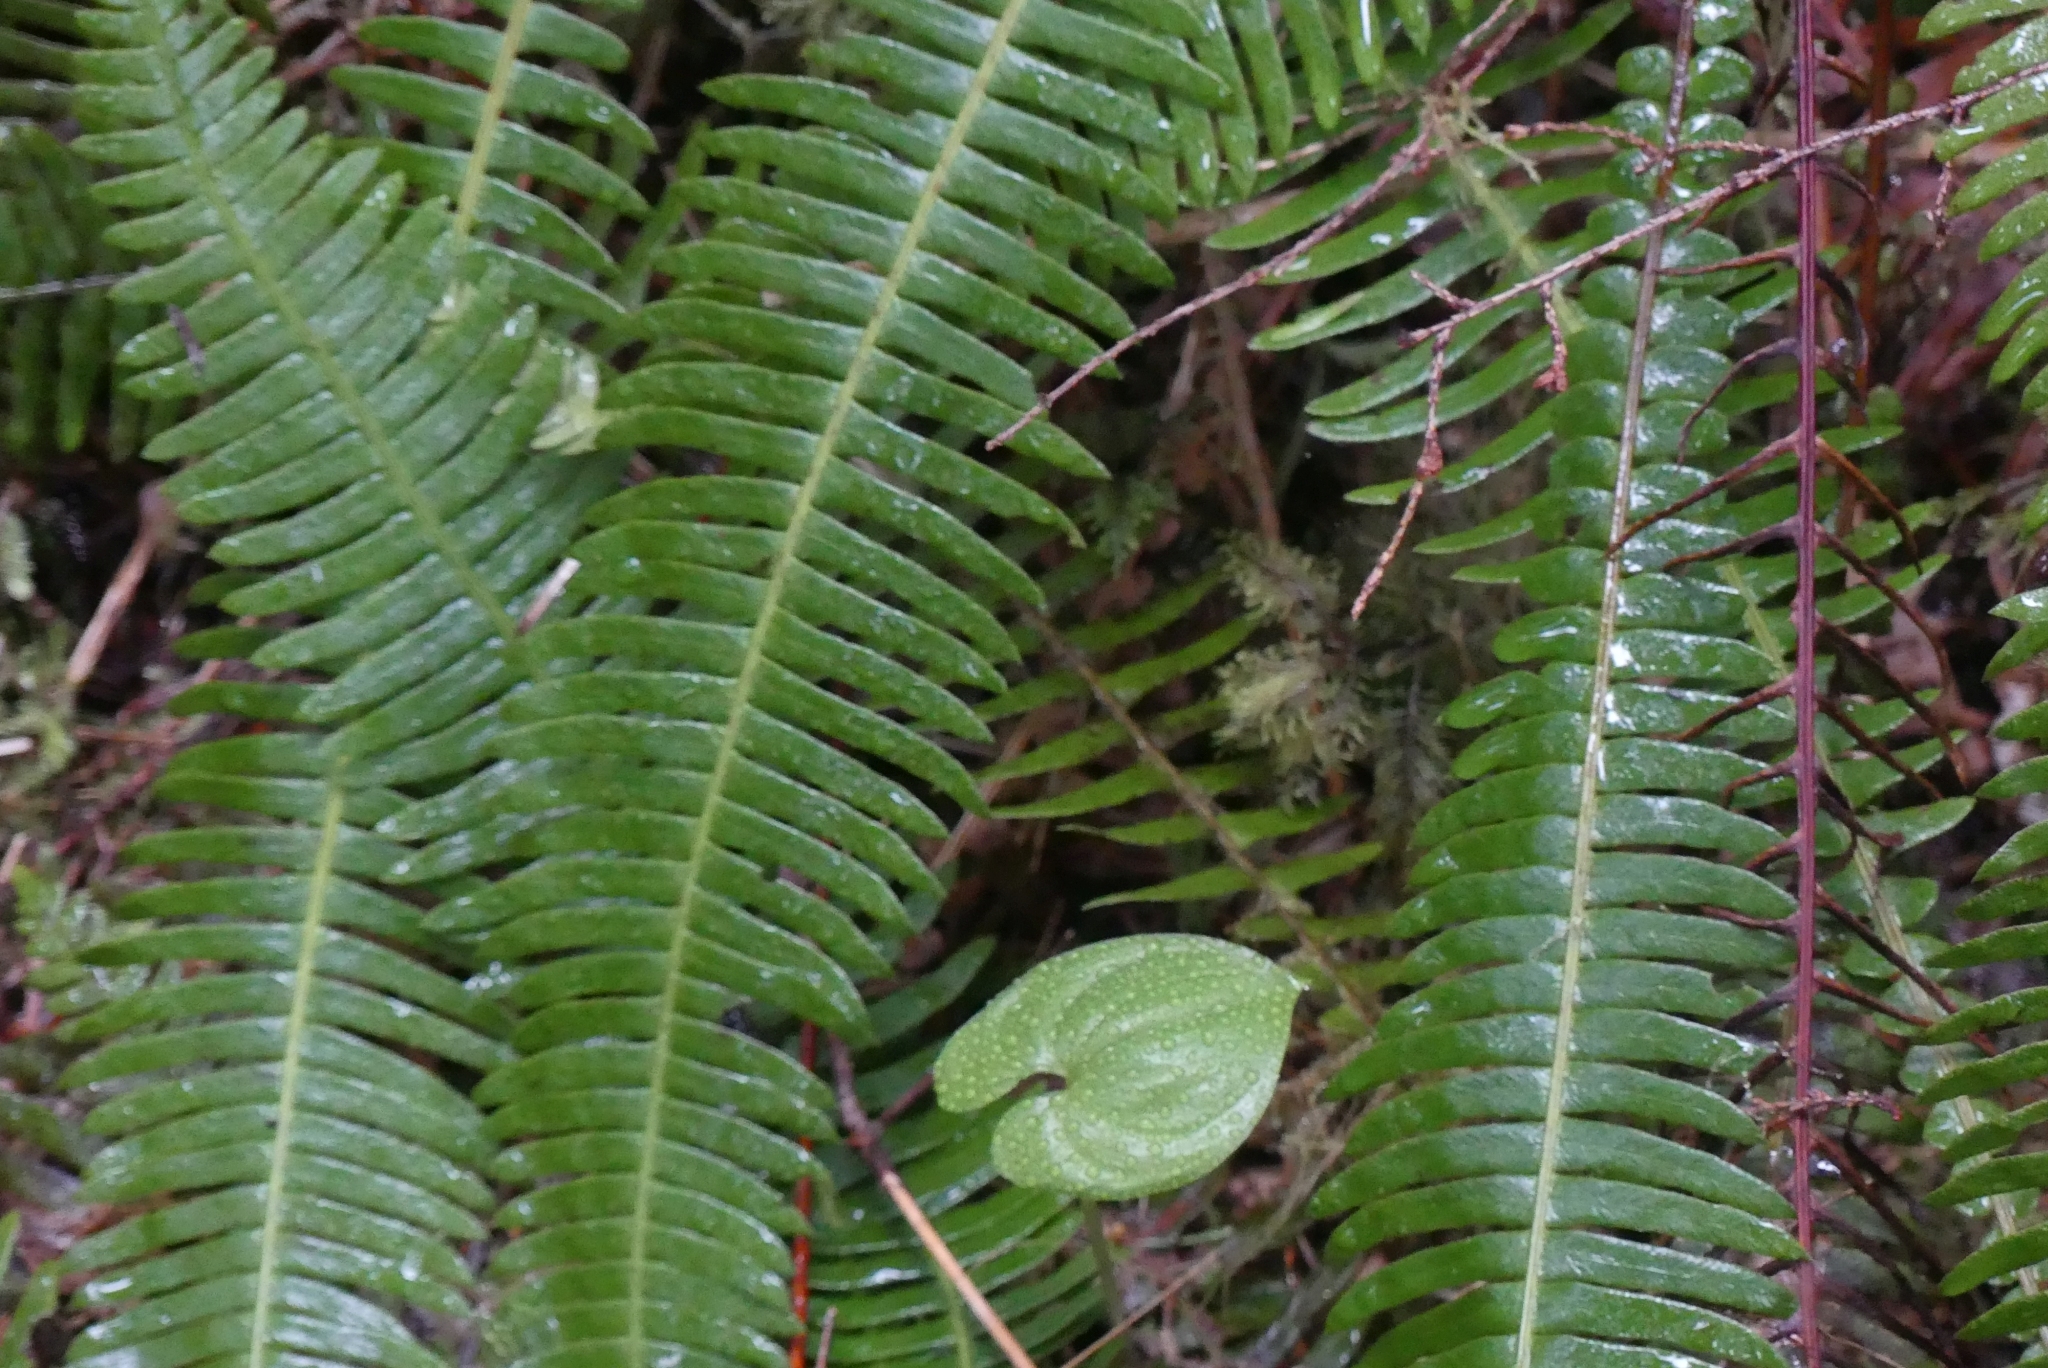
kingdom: Plantae
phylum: Tracheophyta
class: Polypodiopsida
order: Polypodiales
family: Blechnaceae
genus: Struthiopteris
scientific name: Struthiopteris spicant
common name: Deer fern
